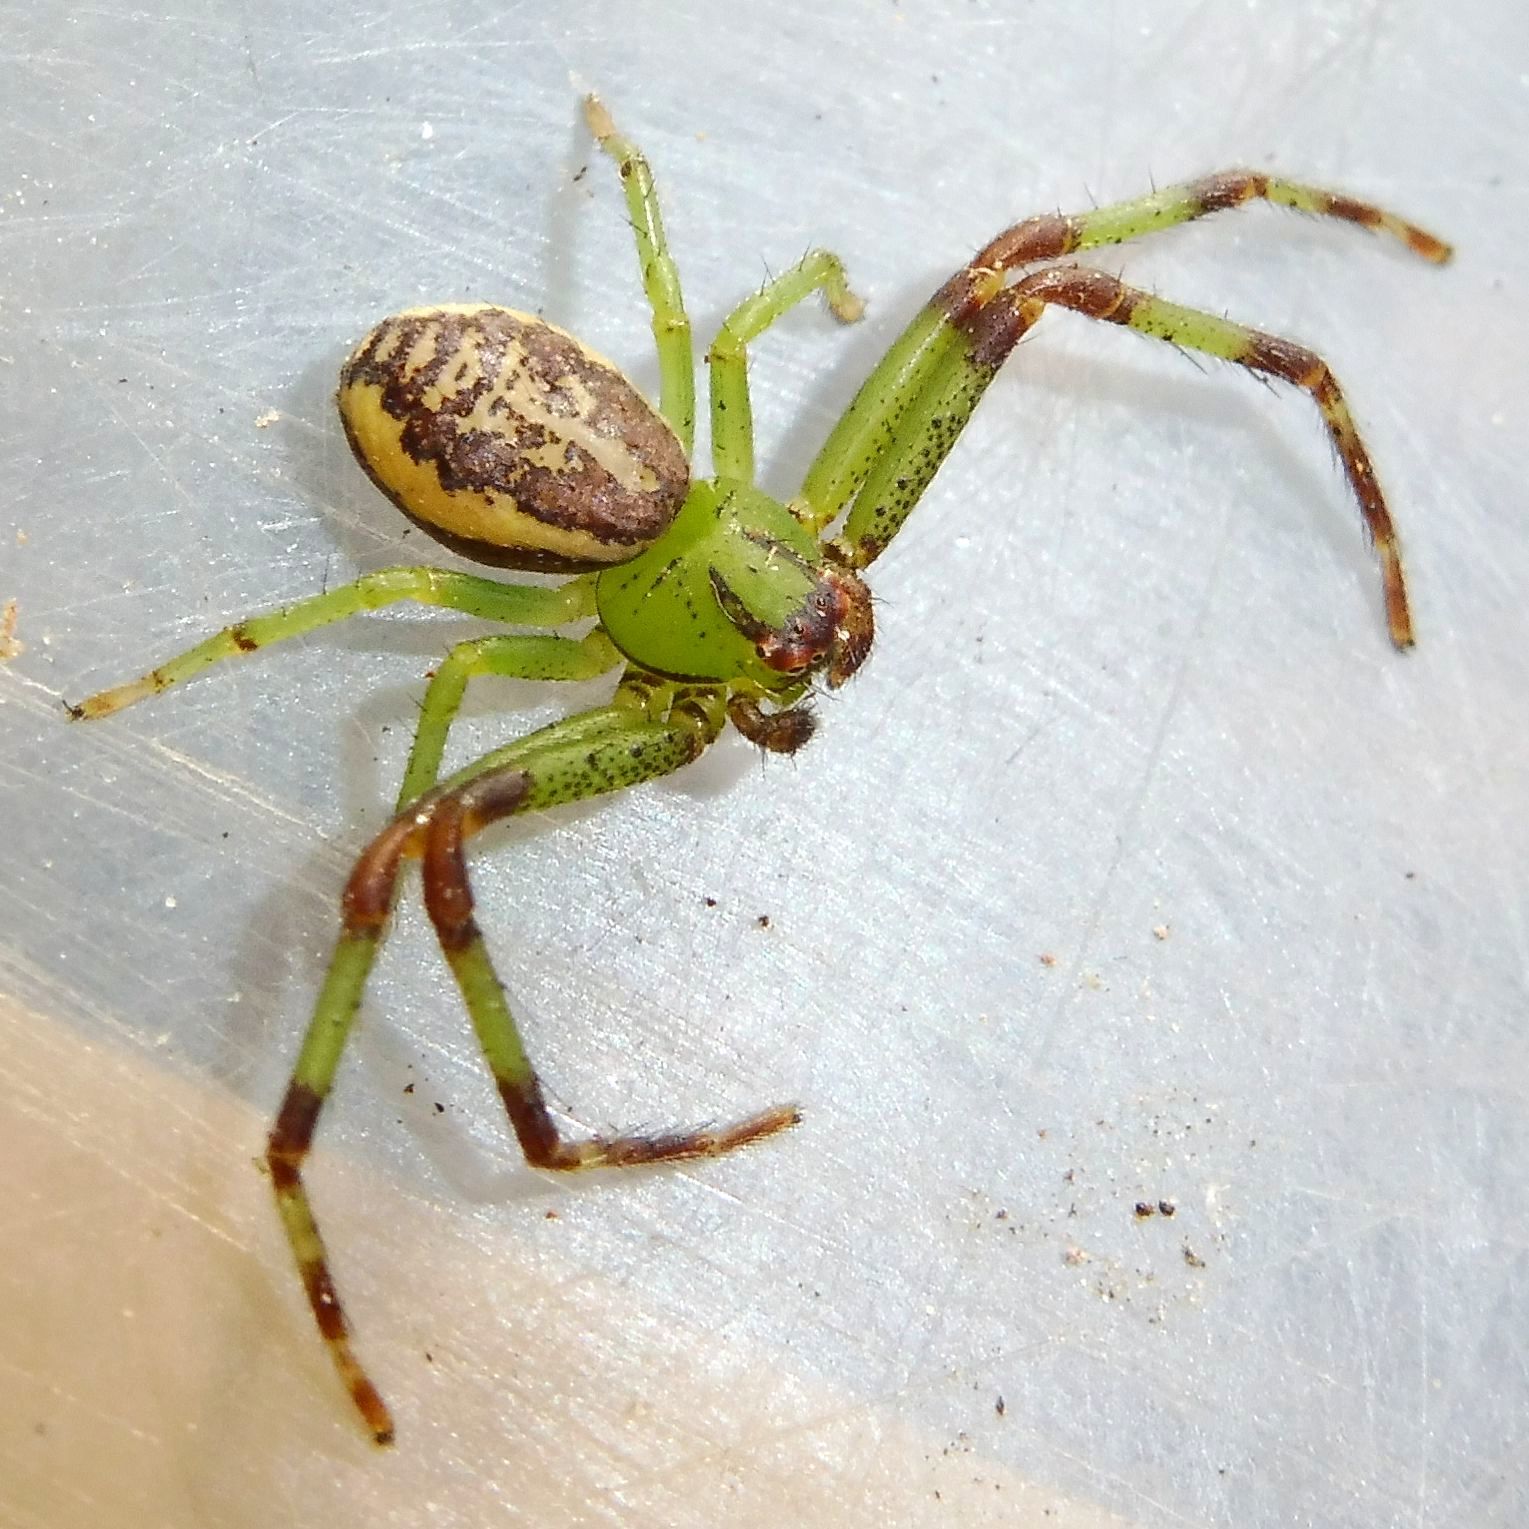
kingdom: Animalia
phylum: Arthropoda
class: Arachnida
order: Araneae
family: Thomisidae
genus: Diaea
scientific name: Diaea dorsata
